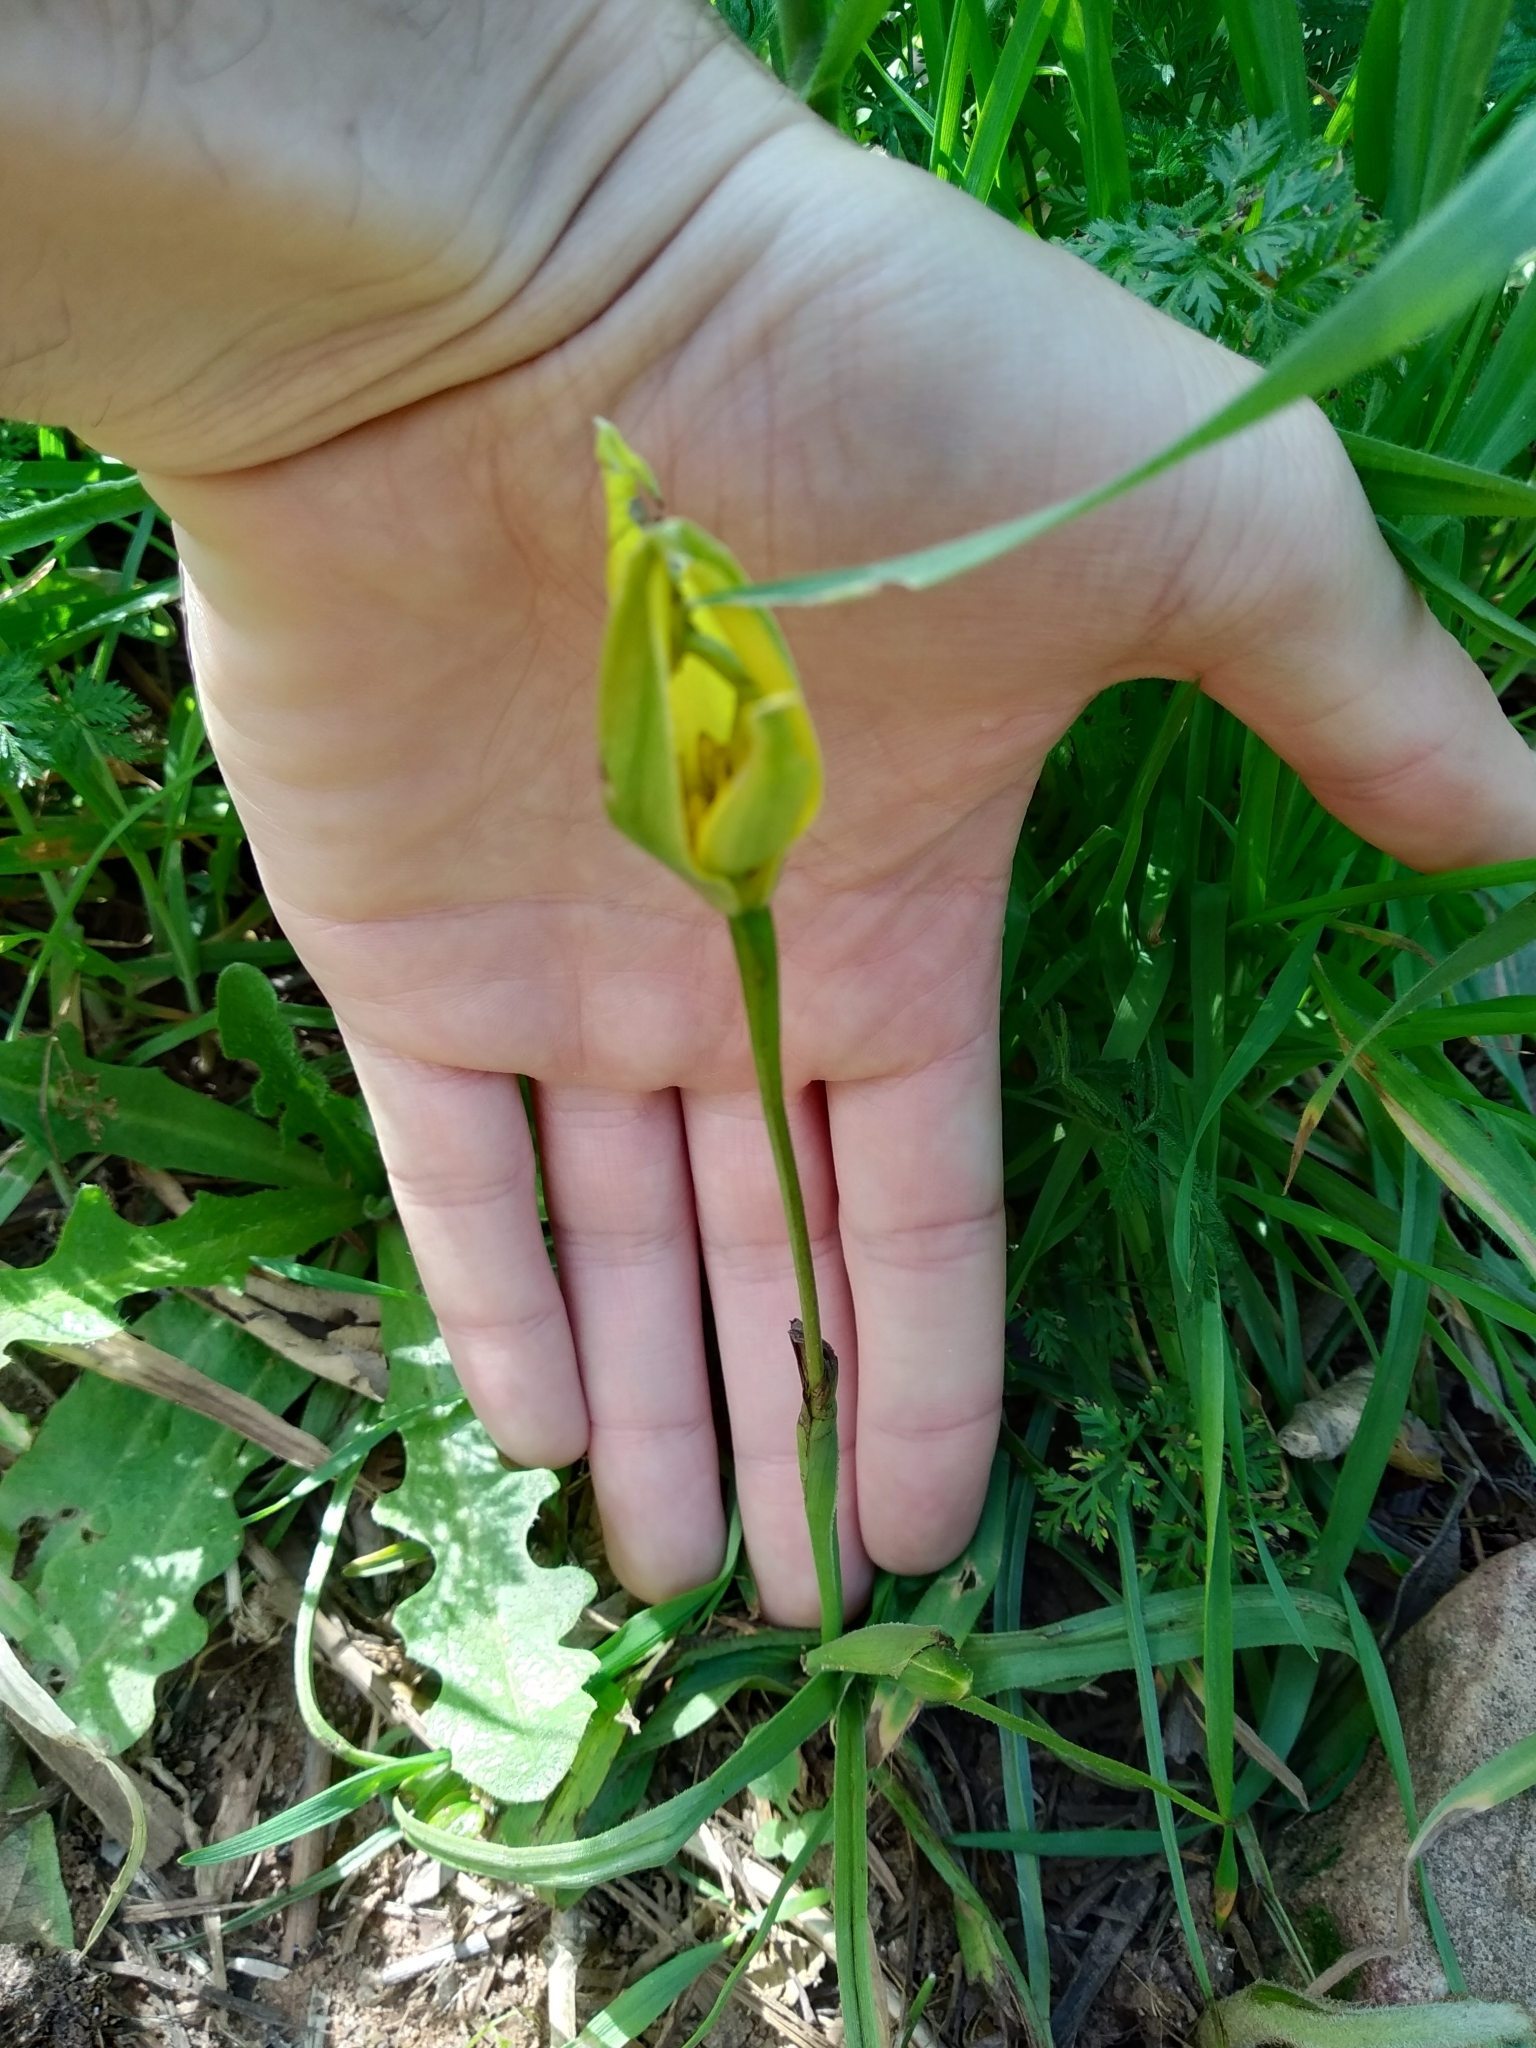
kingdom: Plantae
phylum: Tracheophyta
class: Liliopsida
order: Asparagales
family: Hypoxidaceae
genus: Pauridia
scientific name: Pauridia capensis
